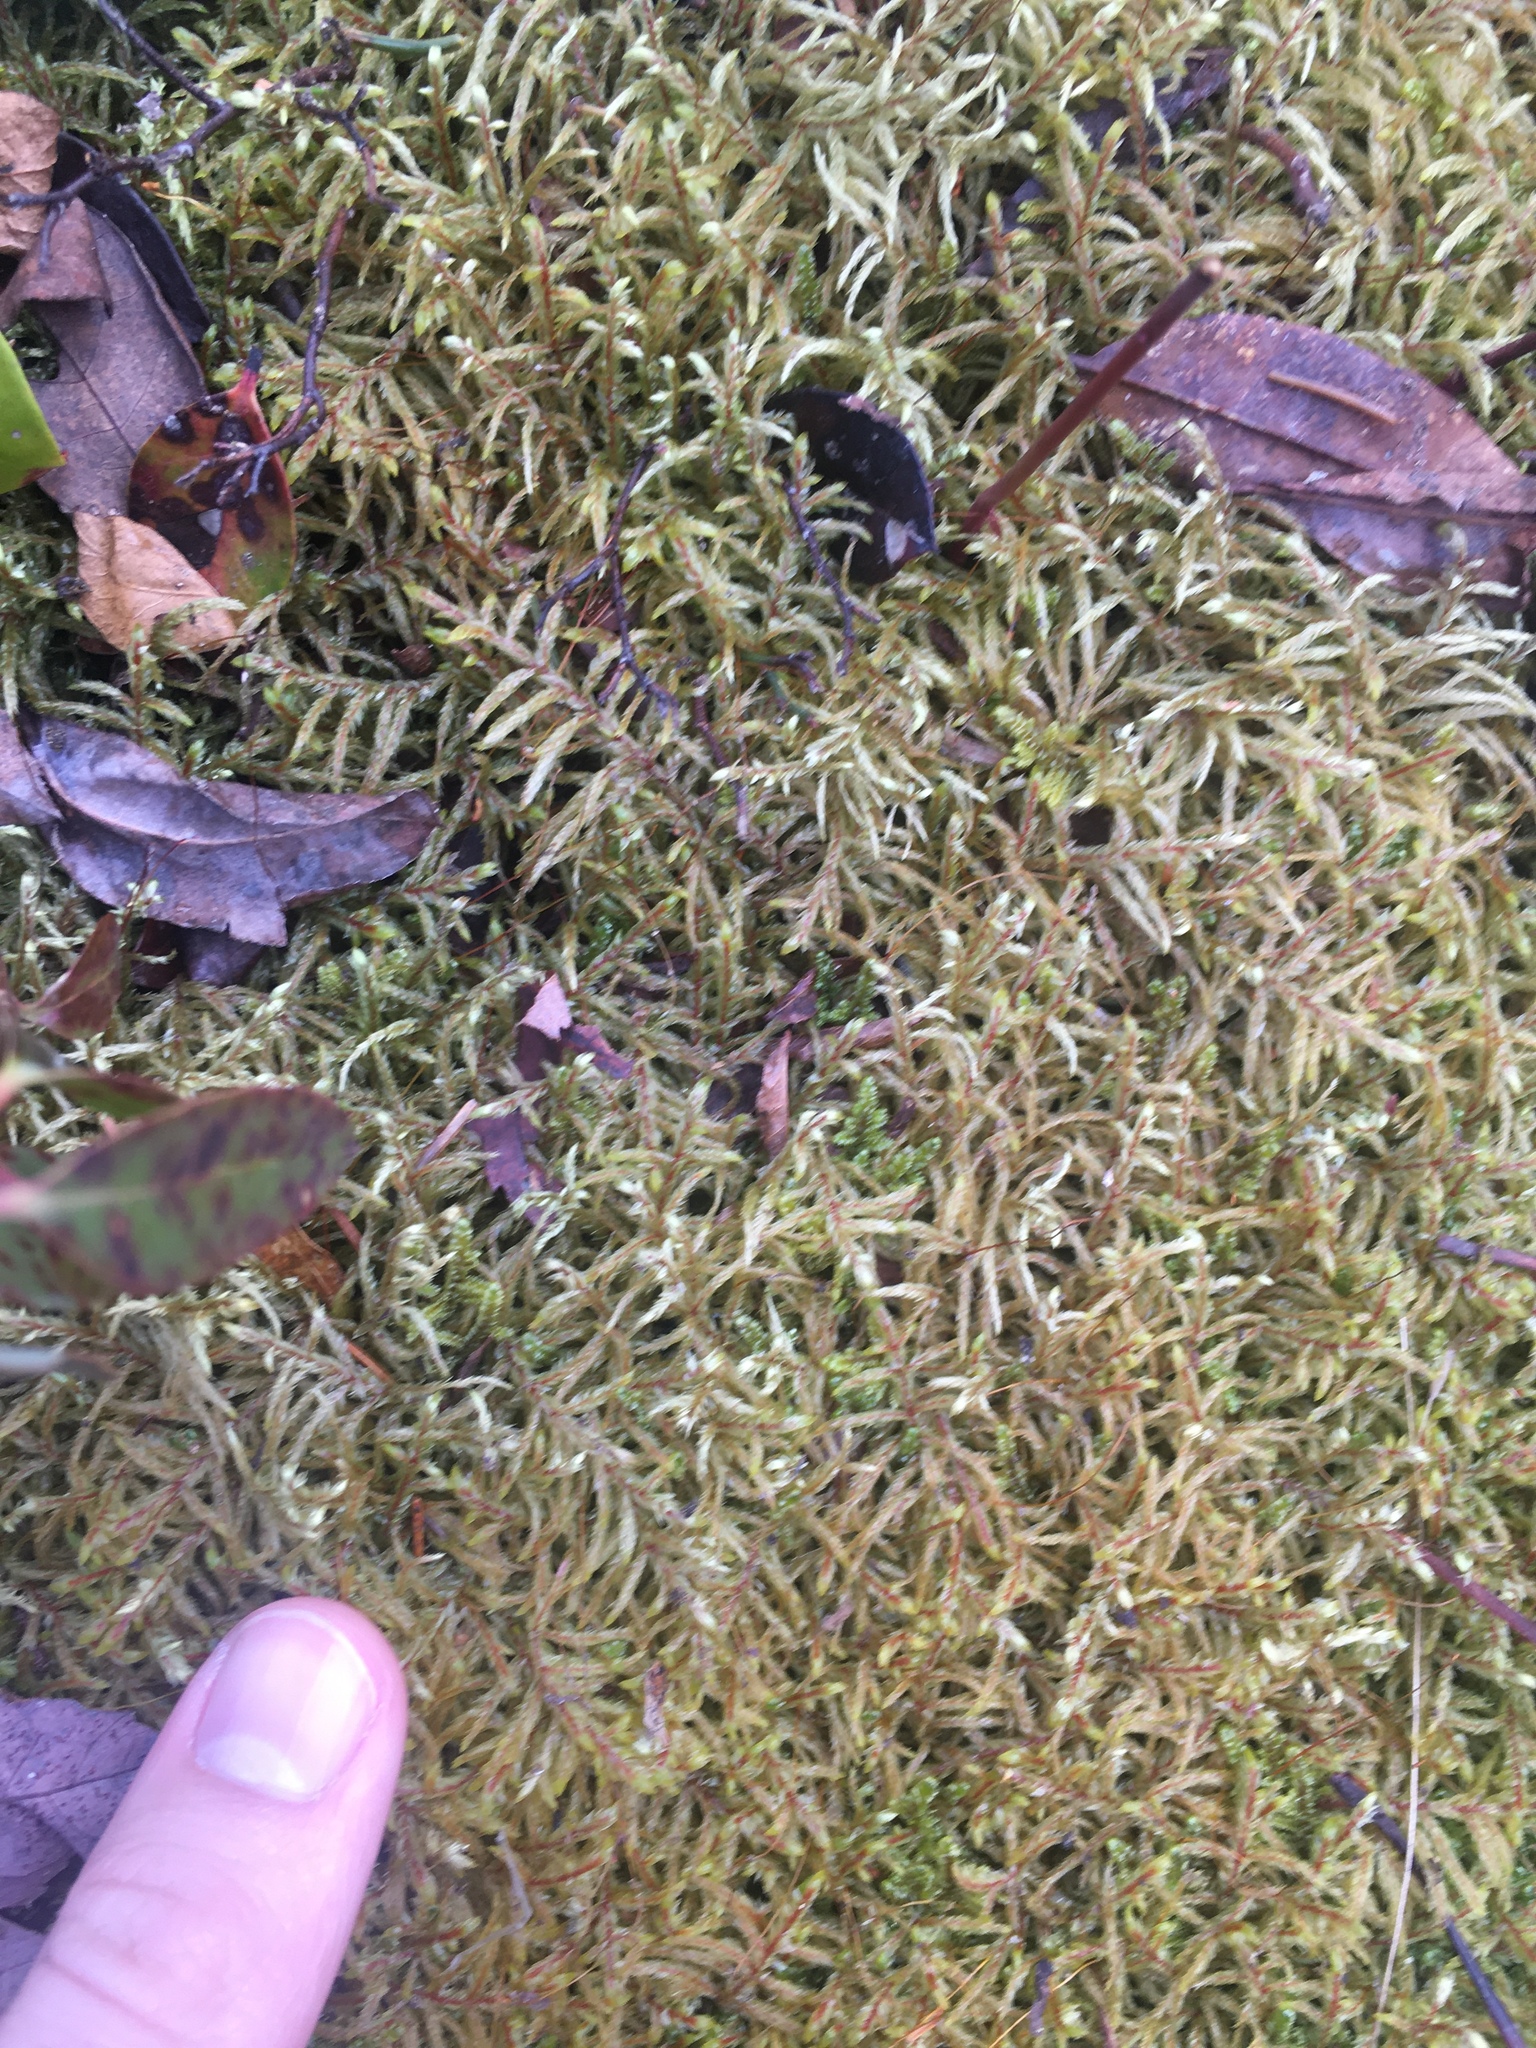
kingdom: Plantae
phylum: Bryophyta
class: Bryopsida
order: Hypnales
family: Hylocomiaceae
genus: Pleurozium
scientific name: Pleurozium schreberi
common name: Red-stemmed feather moss
